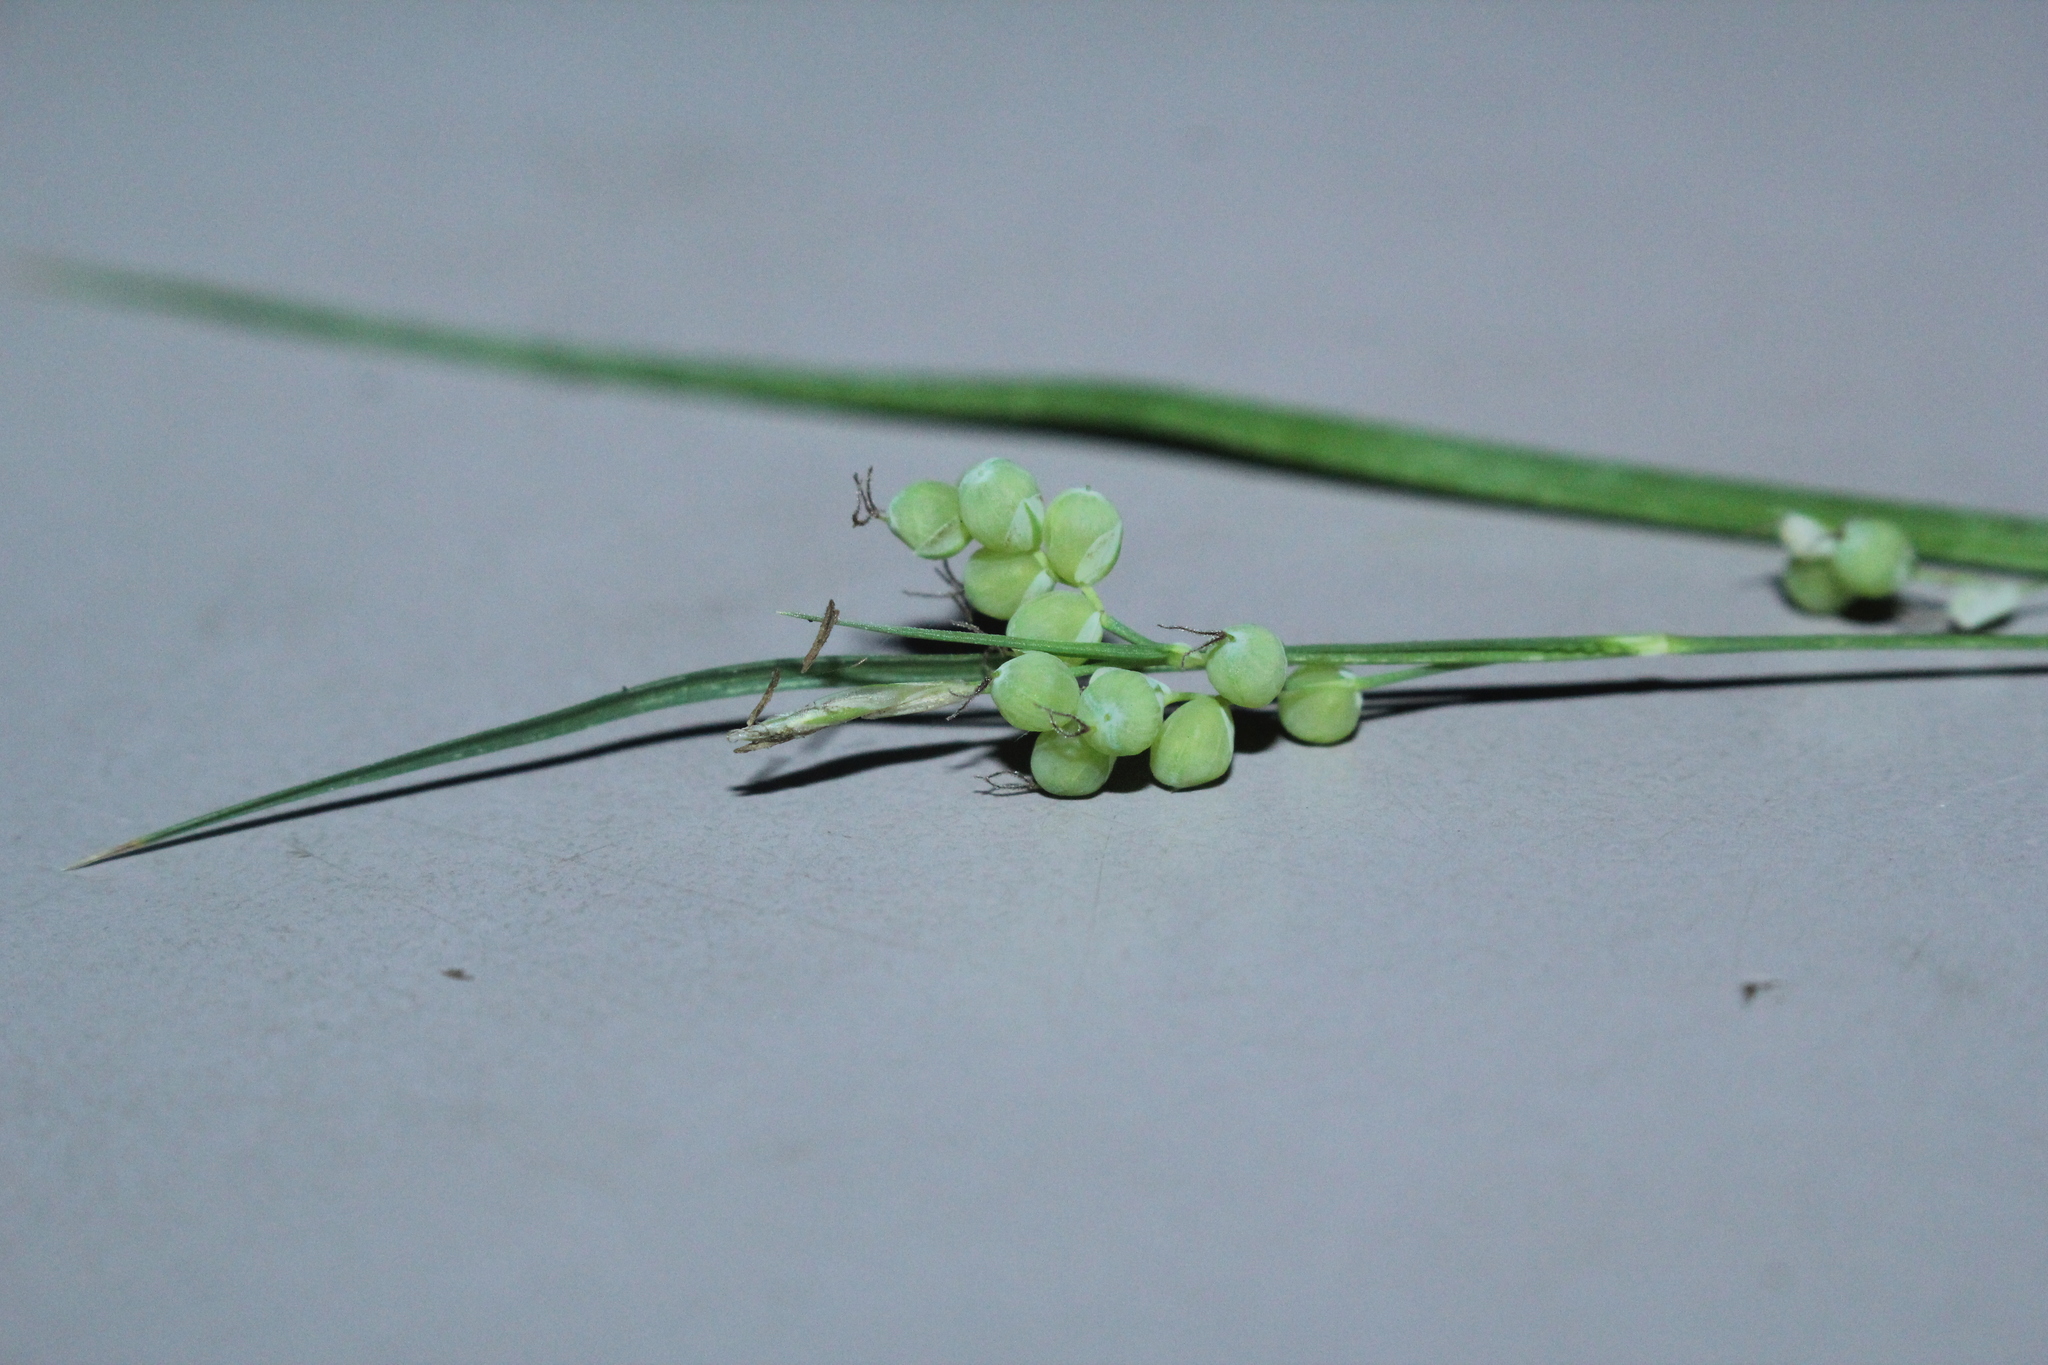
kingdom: Plantae
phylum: Tracheophyta
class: Liliopsida
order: Poales
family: Cyperaceae
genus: Carex
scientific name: Carex aurea
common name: Golden sedge
